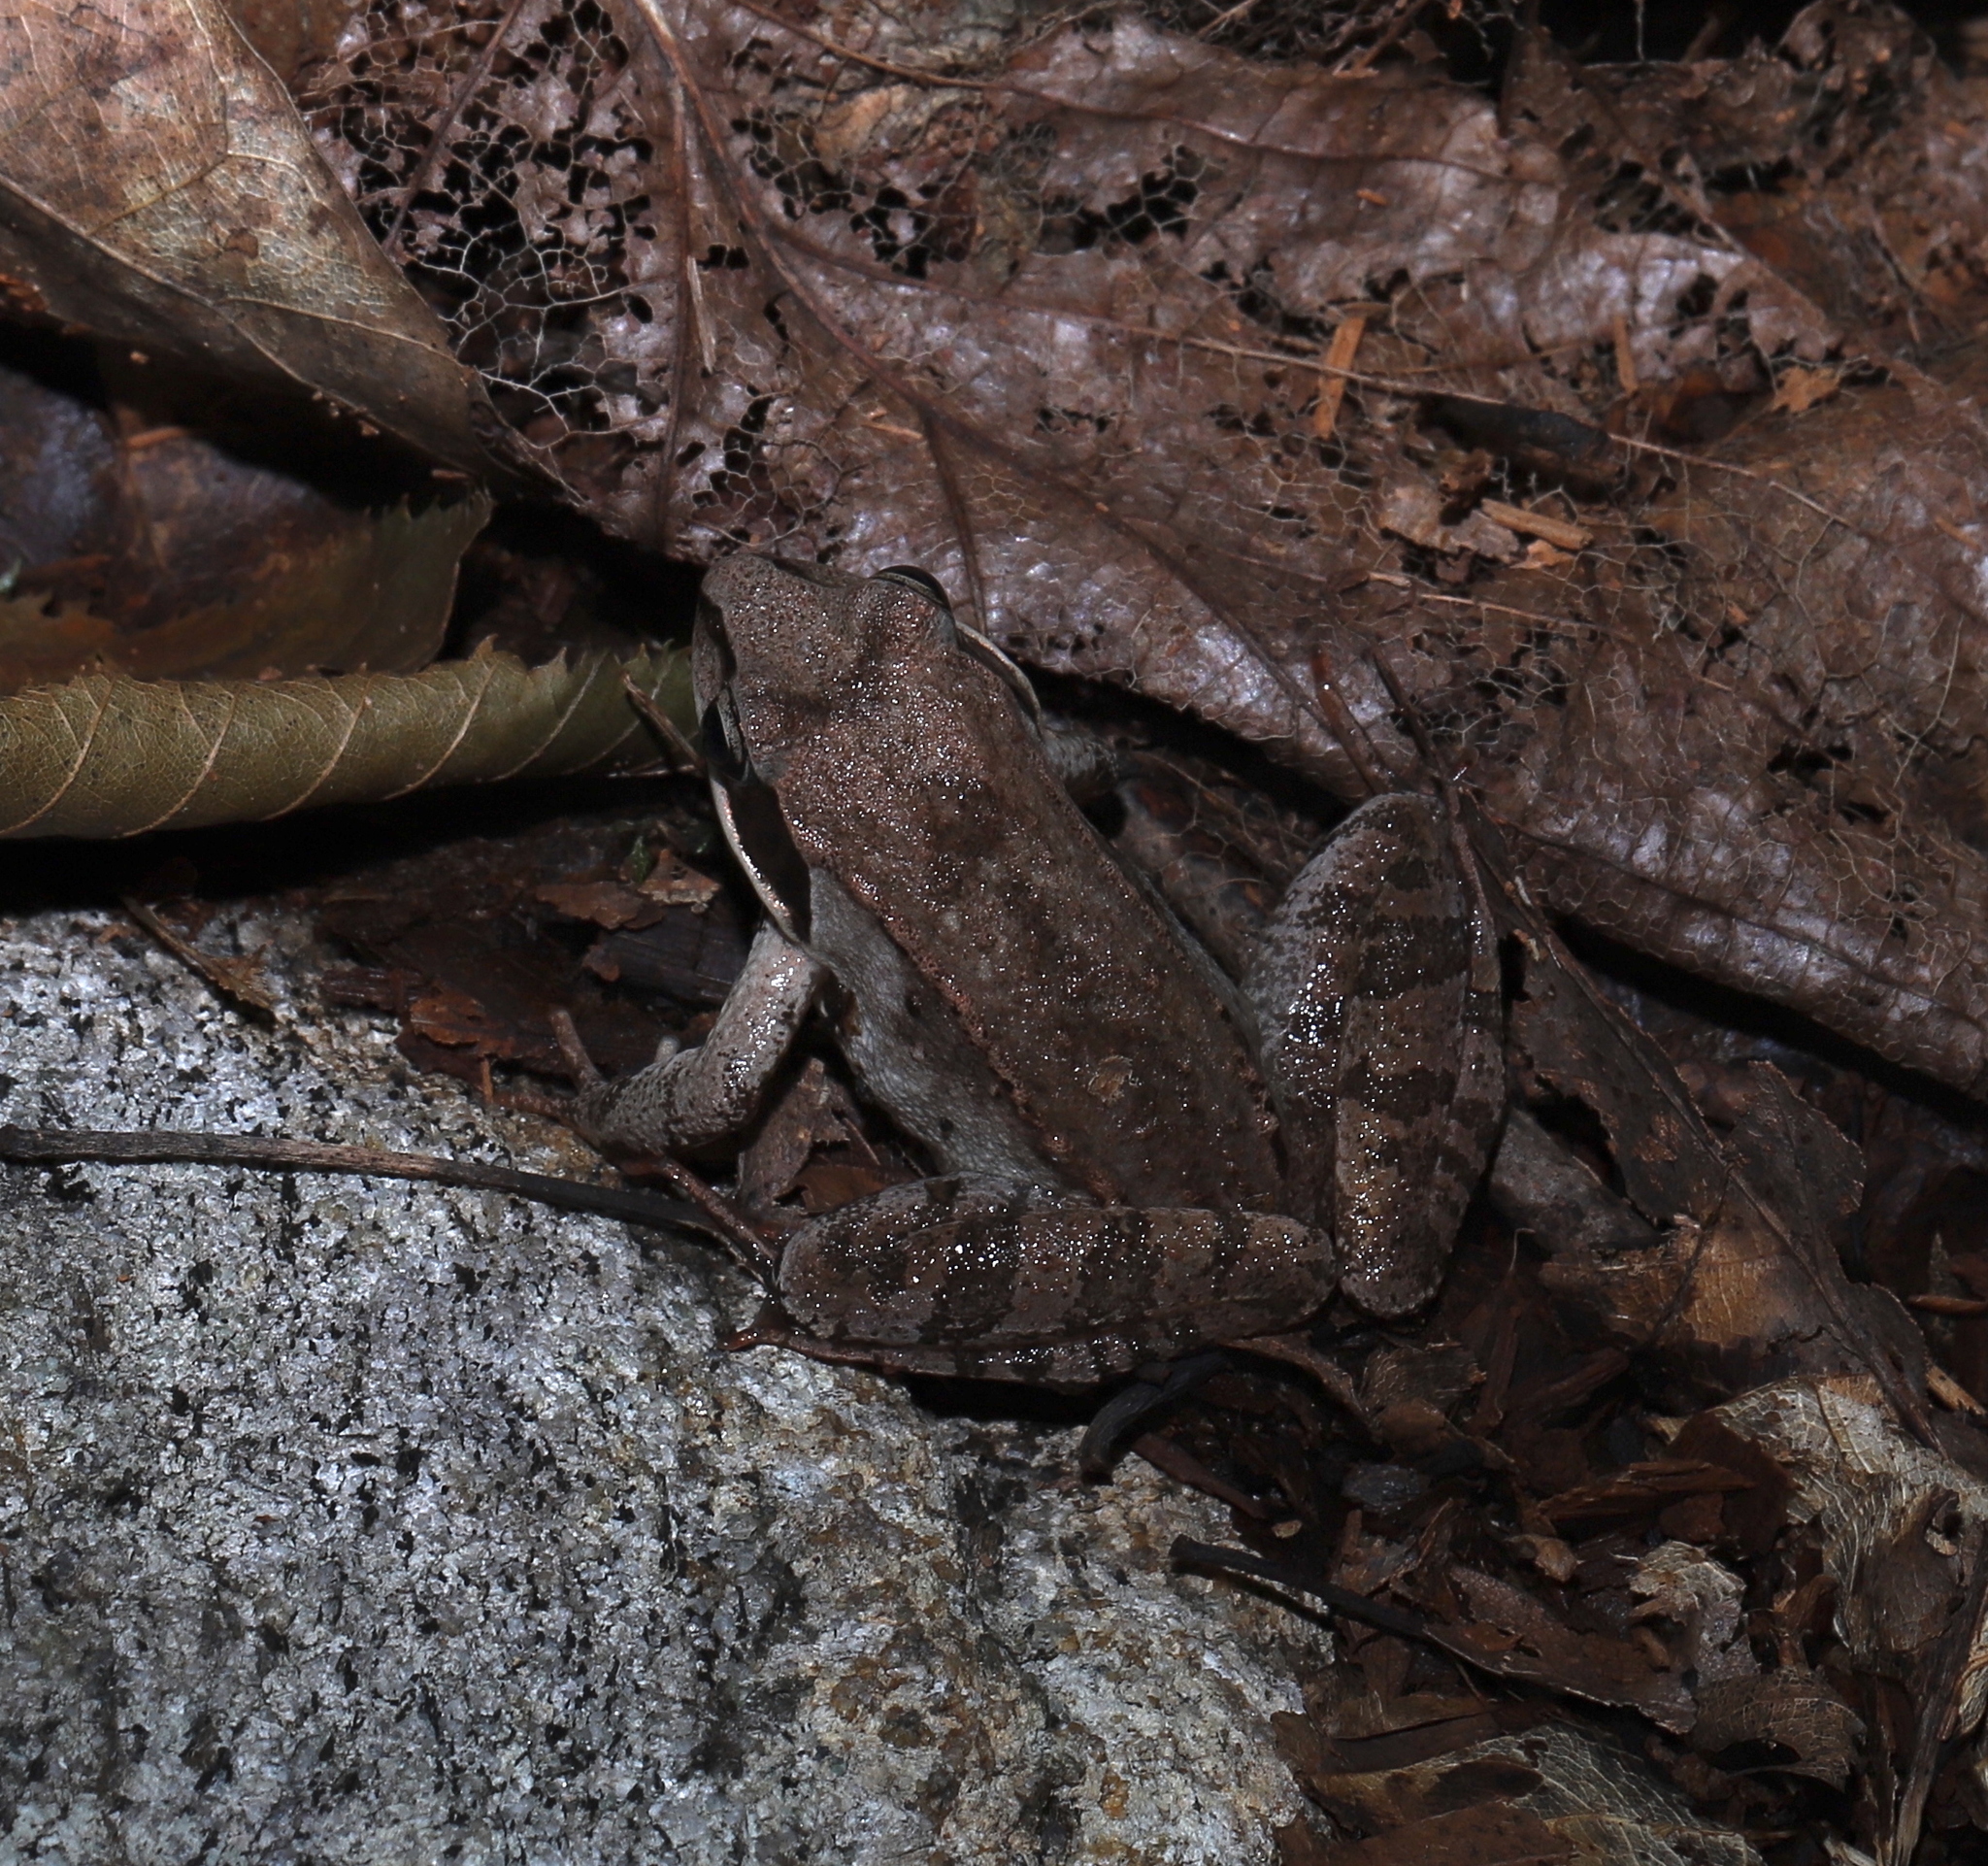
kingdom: Animalia
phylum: Chordata
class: Amphibia
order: Anura
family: Ranidae
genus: Lithobates
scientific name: Lithobates sylvaticus
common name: Wood frog
